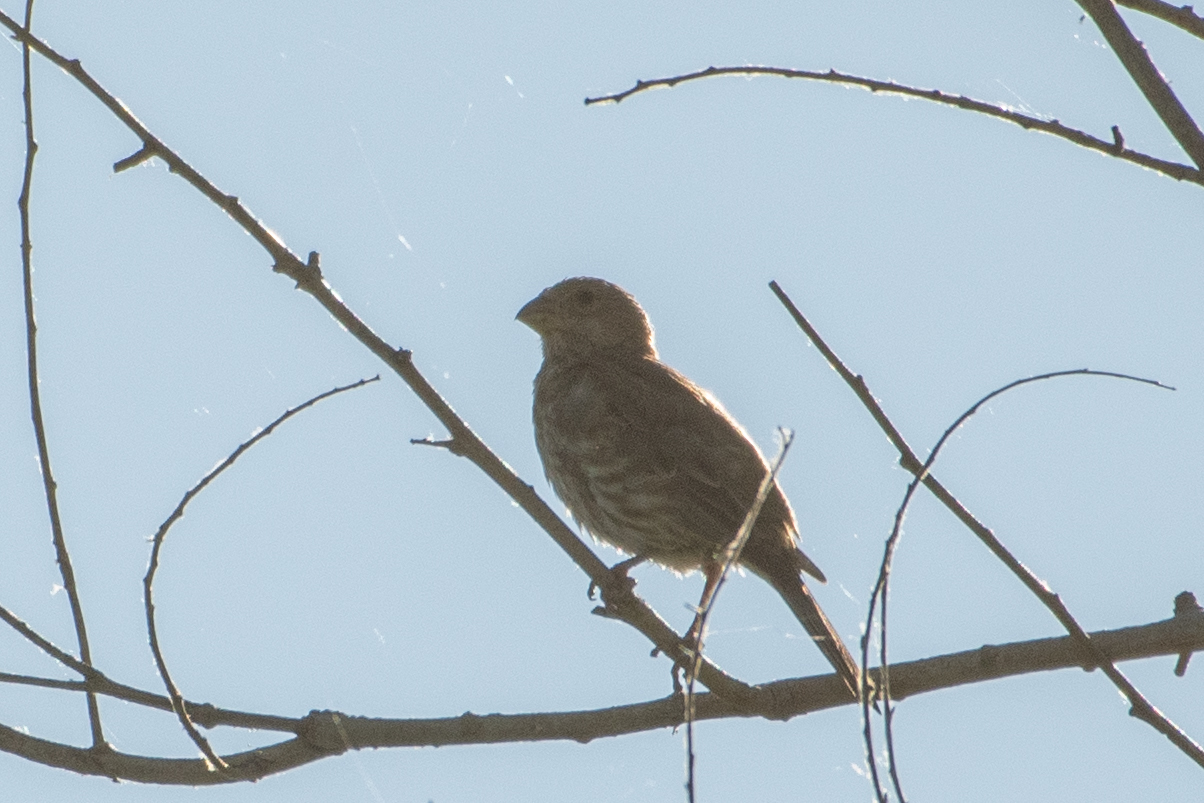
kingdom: Animalia
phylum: Chordata
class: Aves
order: Passeriformes
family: Fringillidae
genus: Haemorhous
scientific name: Haemorhous mexicanus
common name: House finch
